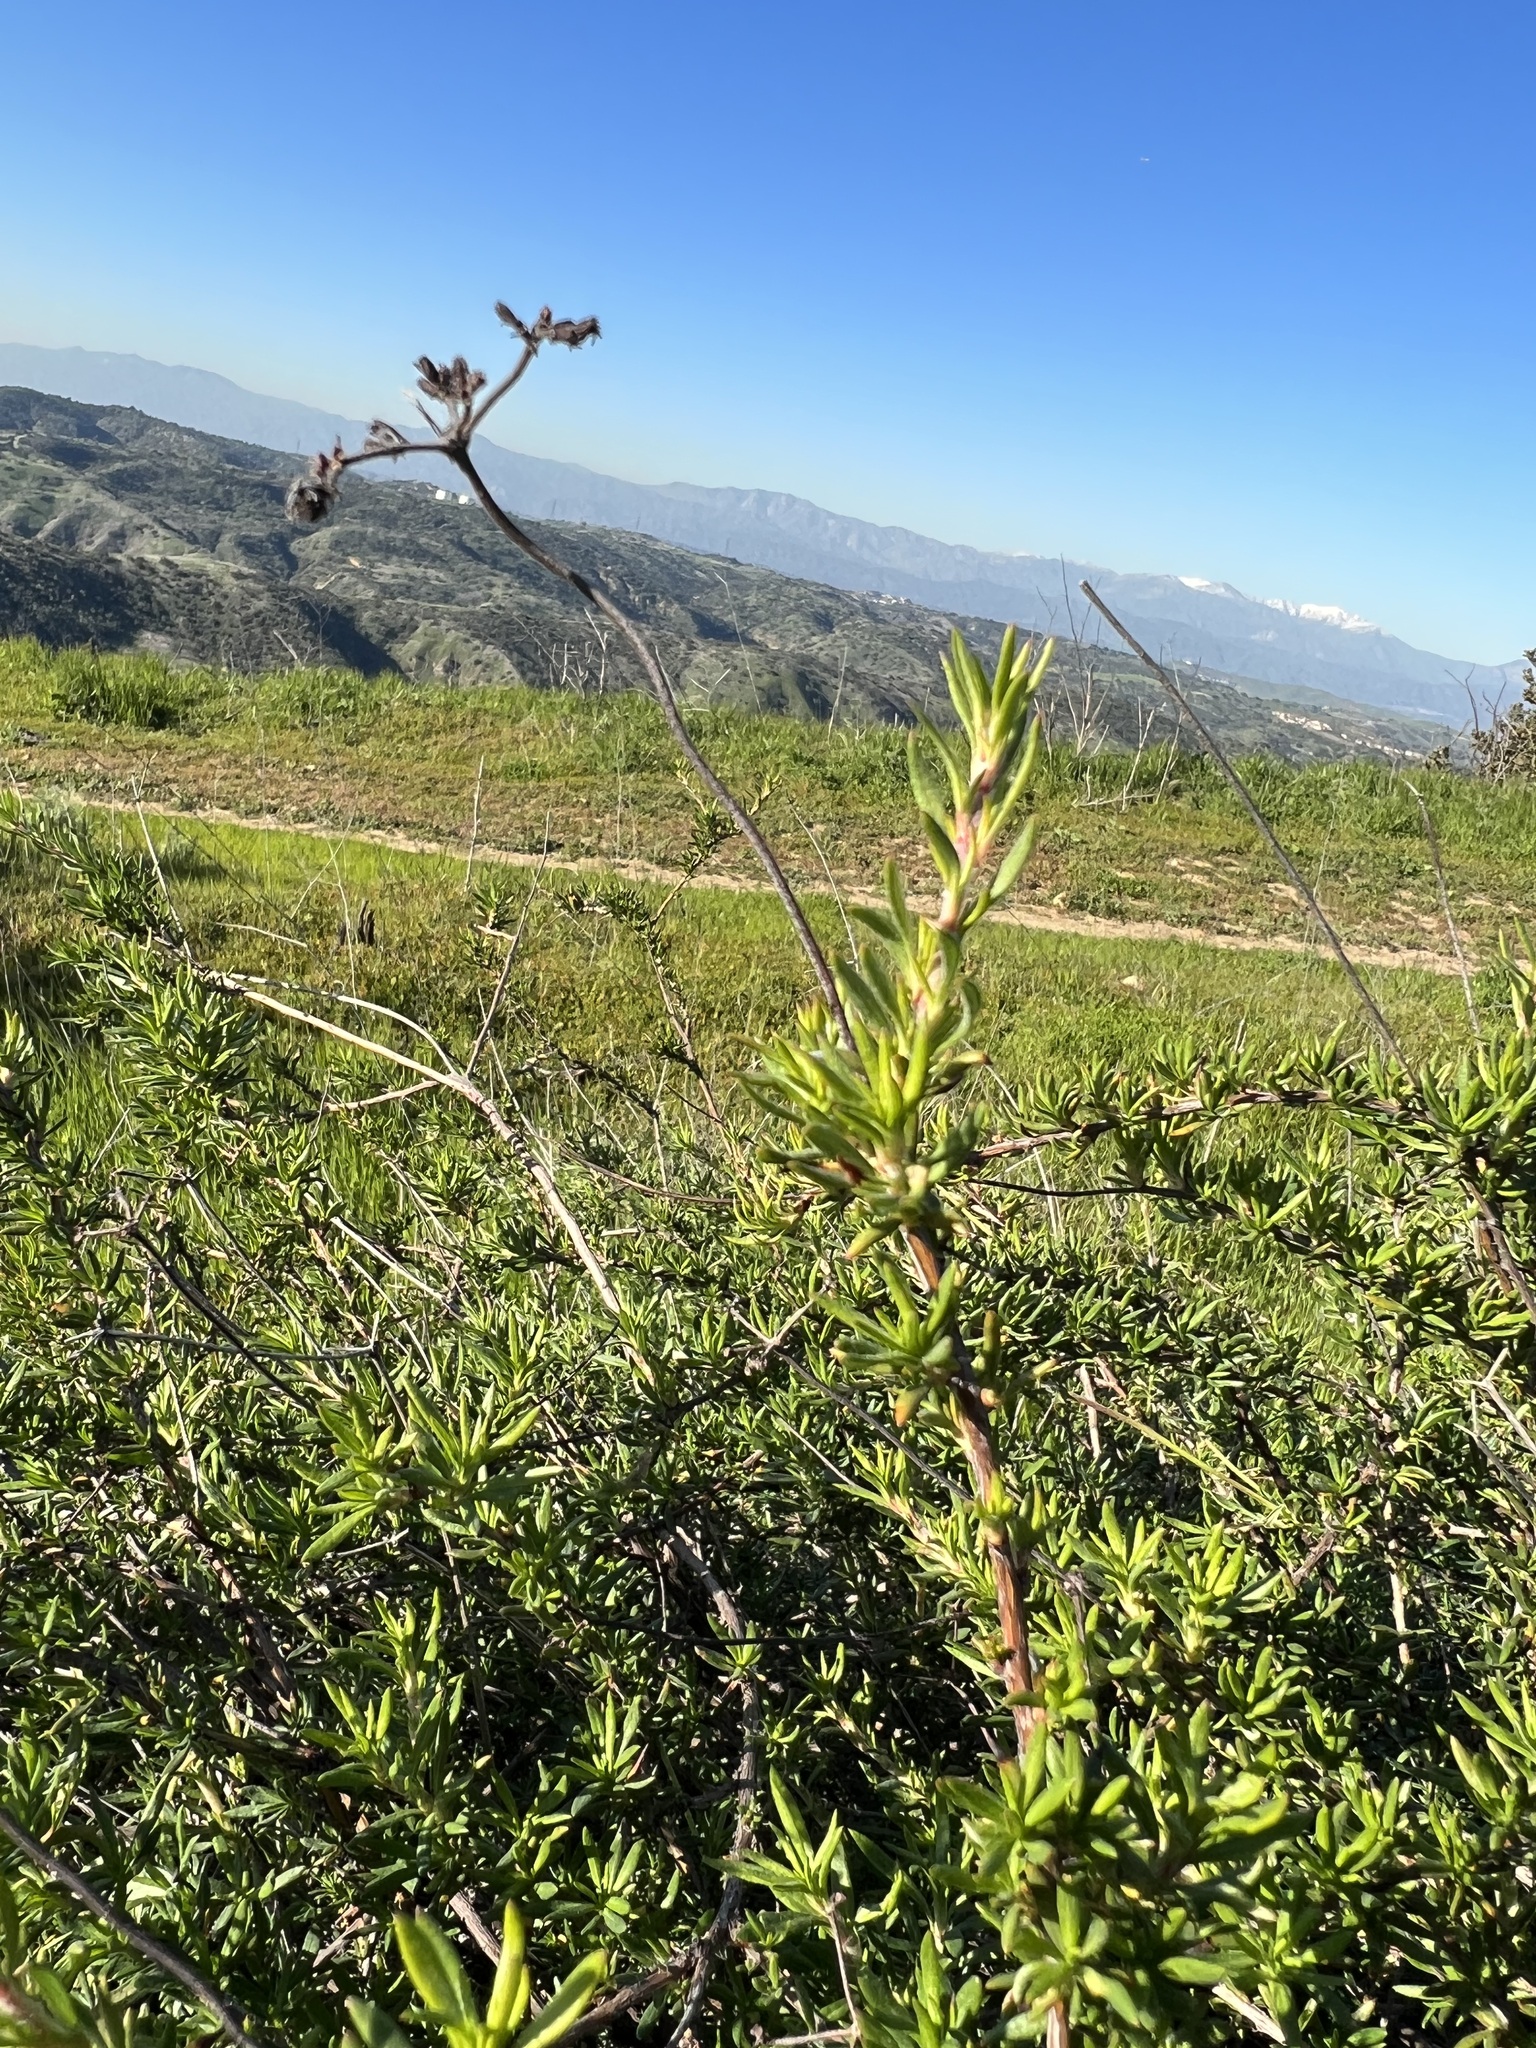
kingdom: Plantae
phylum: Tracheophyta
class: Magnoliopsida
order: Caryophyllales
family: Polygonaceae
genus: Eriogonum
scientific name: Eriogonum fasciculatum
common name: California wild buckwheat
